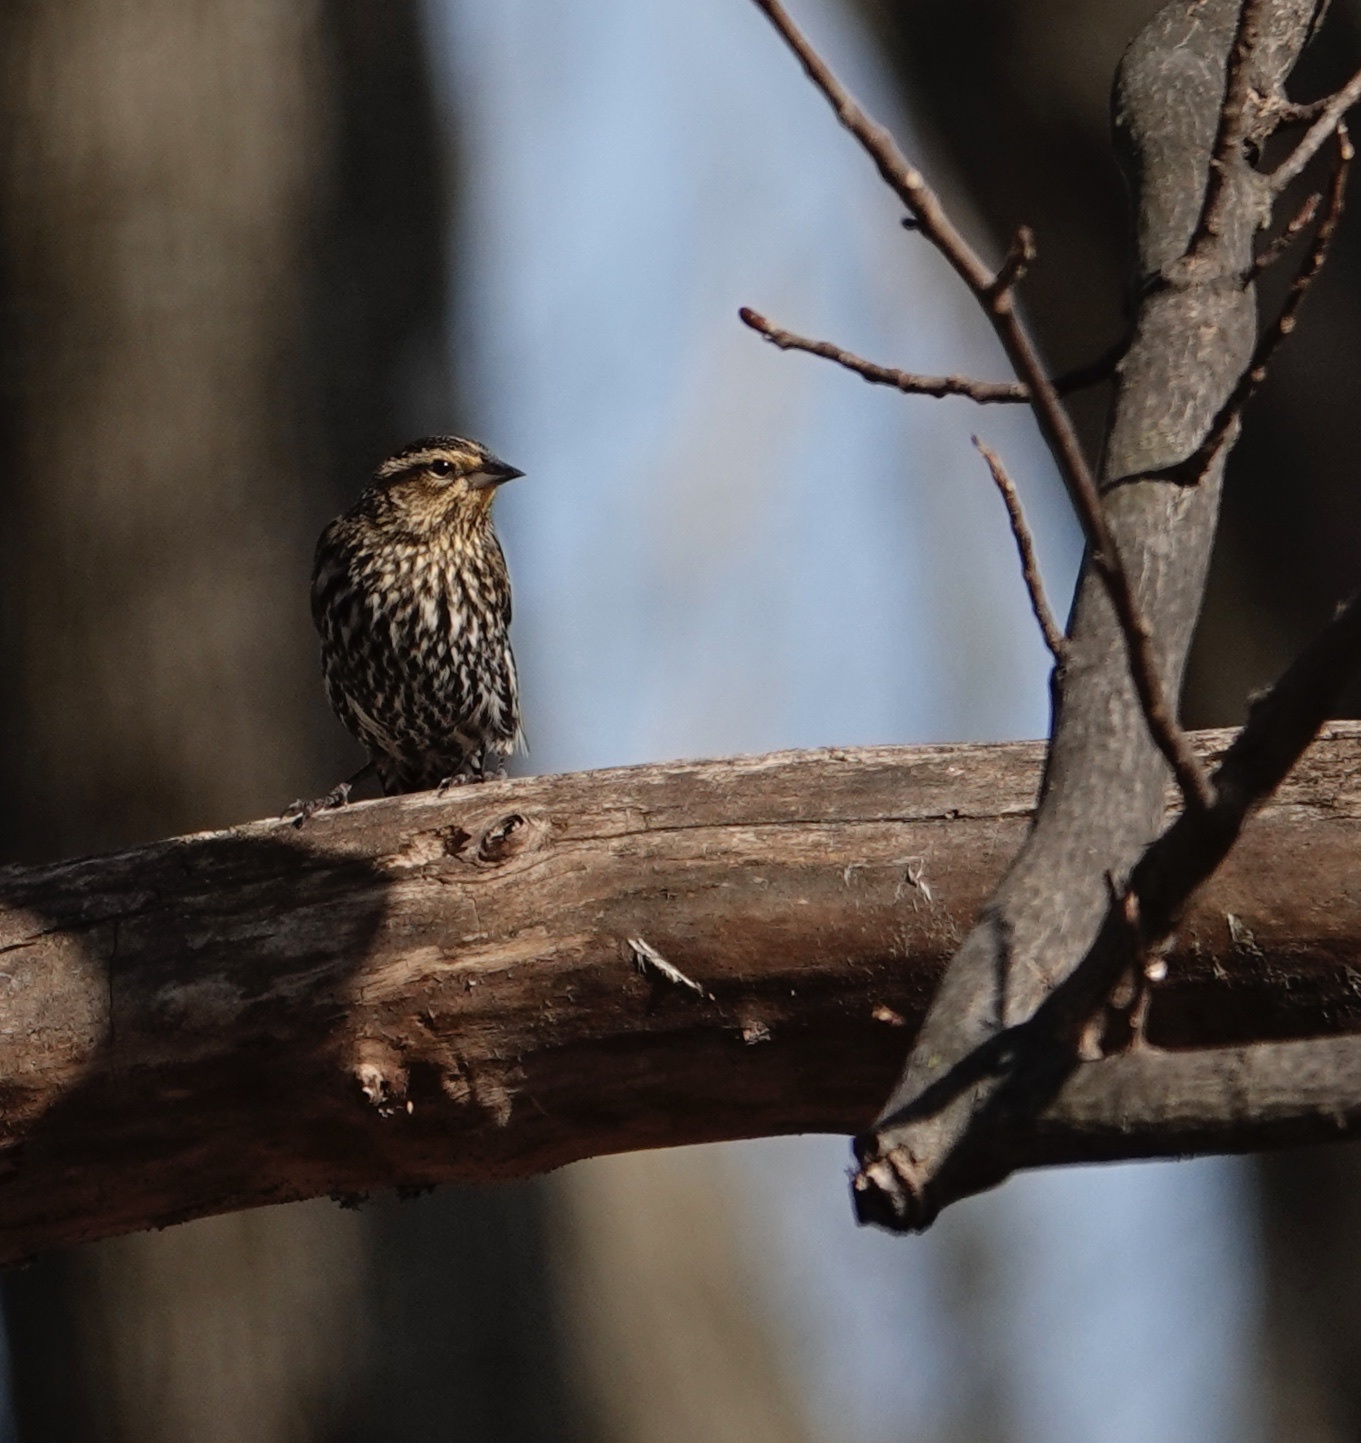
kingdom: Animalia
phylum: Chordata
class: Aves
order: Passeriformes
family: Icteridae
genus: Agelaius
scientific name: Agelaius phoeniceus
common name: Red-winged blackbird
